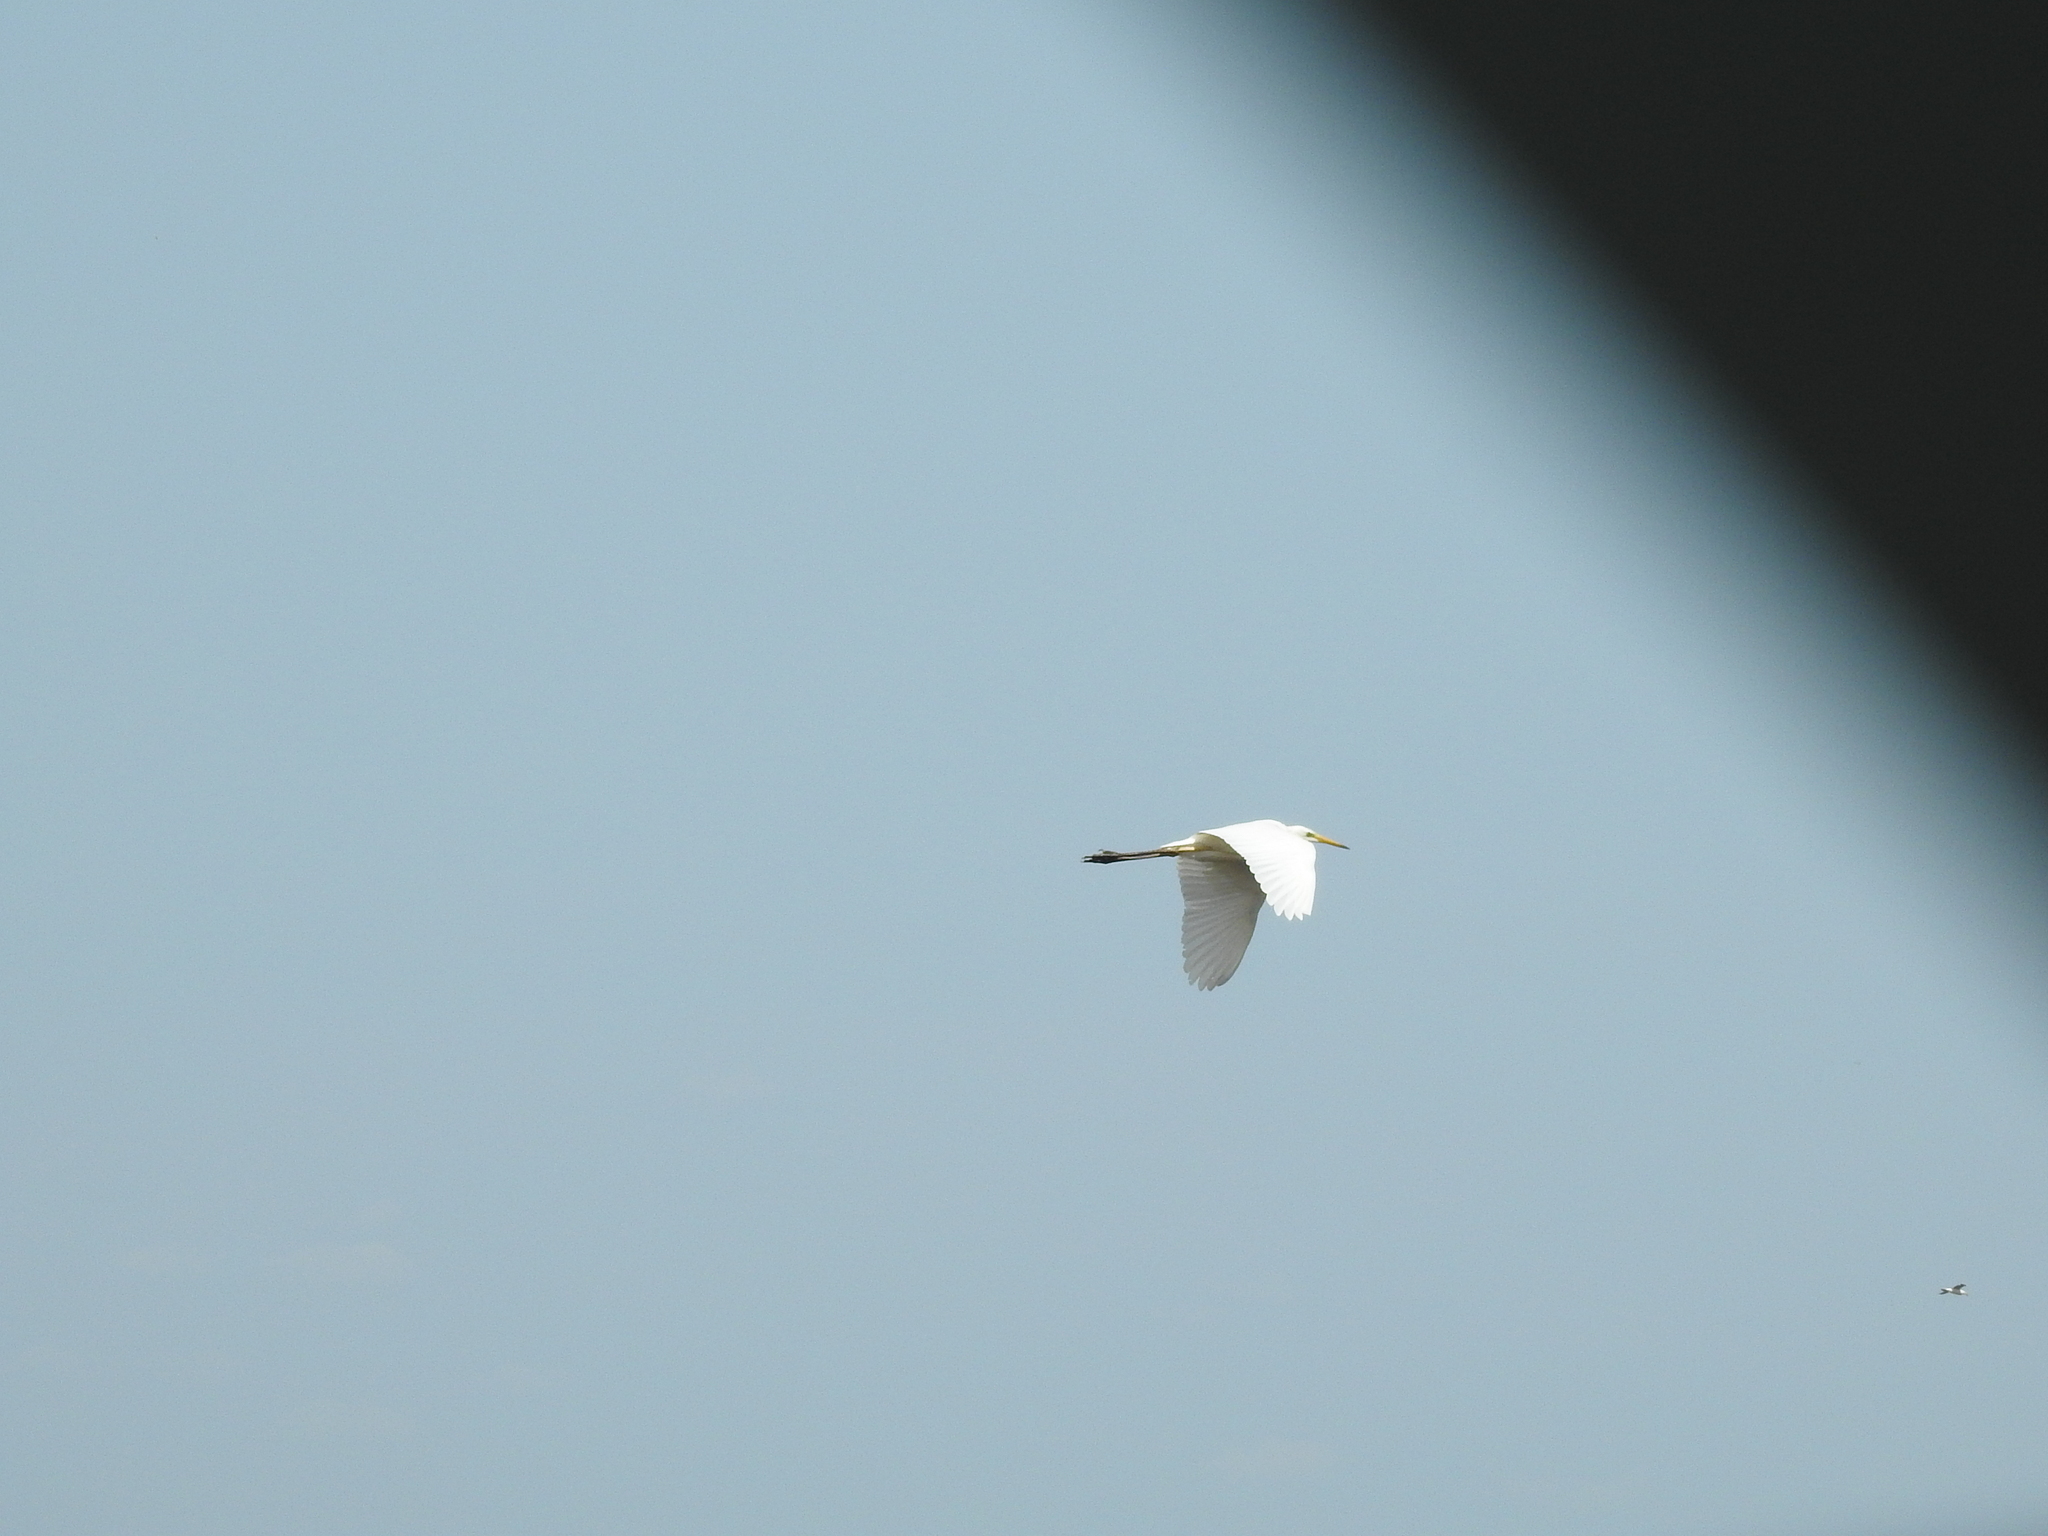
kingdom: Animalia
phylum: Chordata
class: Aves
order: Pelecaniformes
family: Ardeidae
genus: Ardea
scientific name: Ardea alba
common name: Great egret
